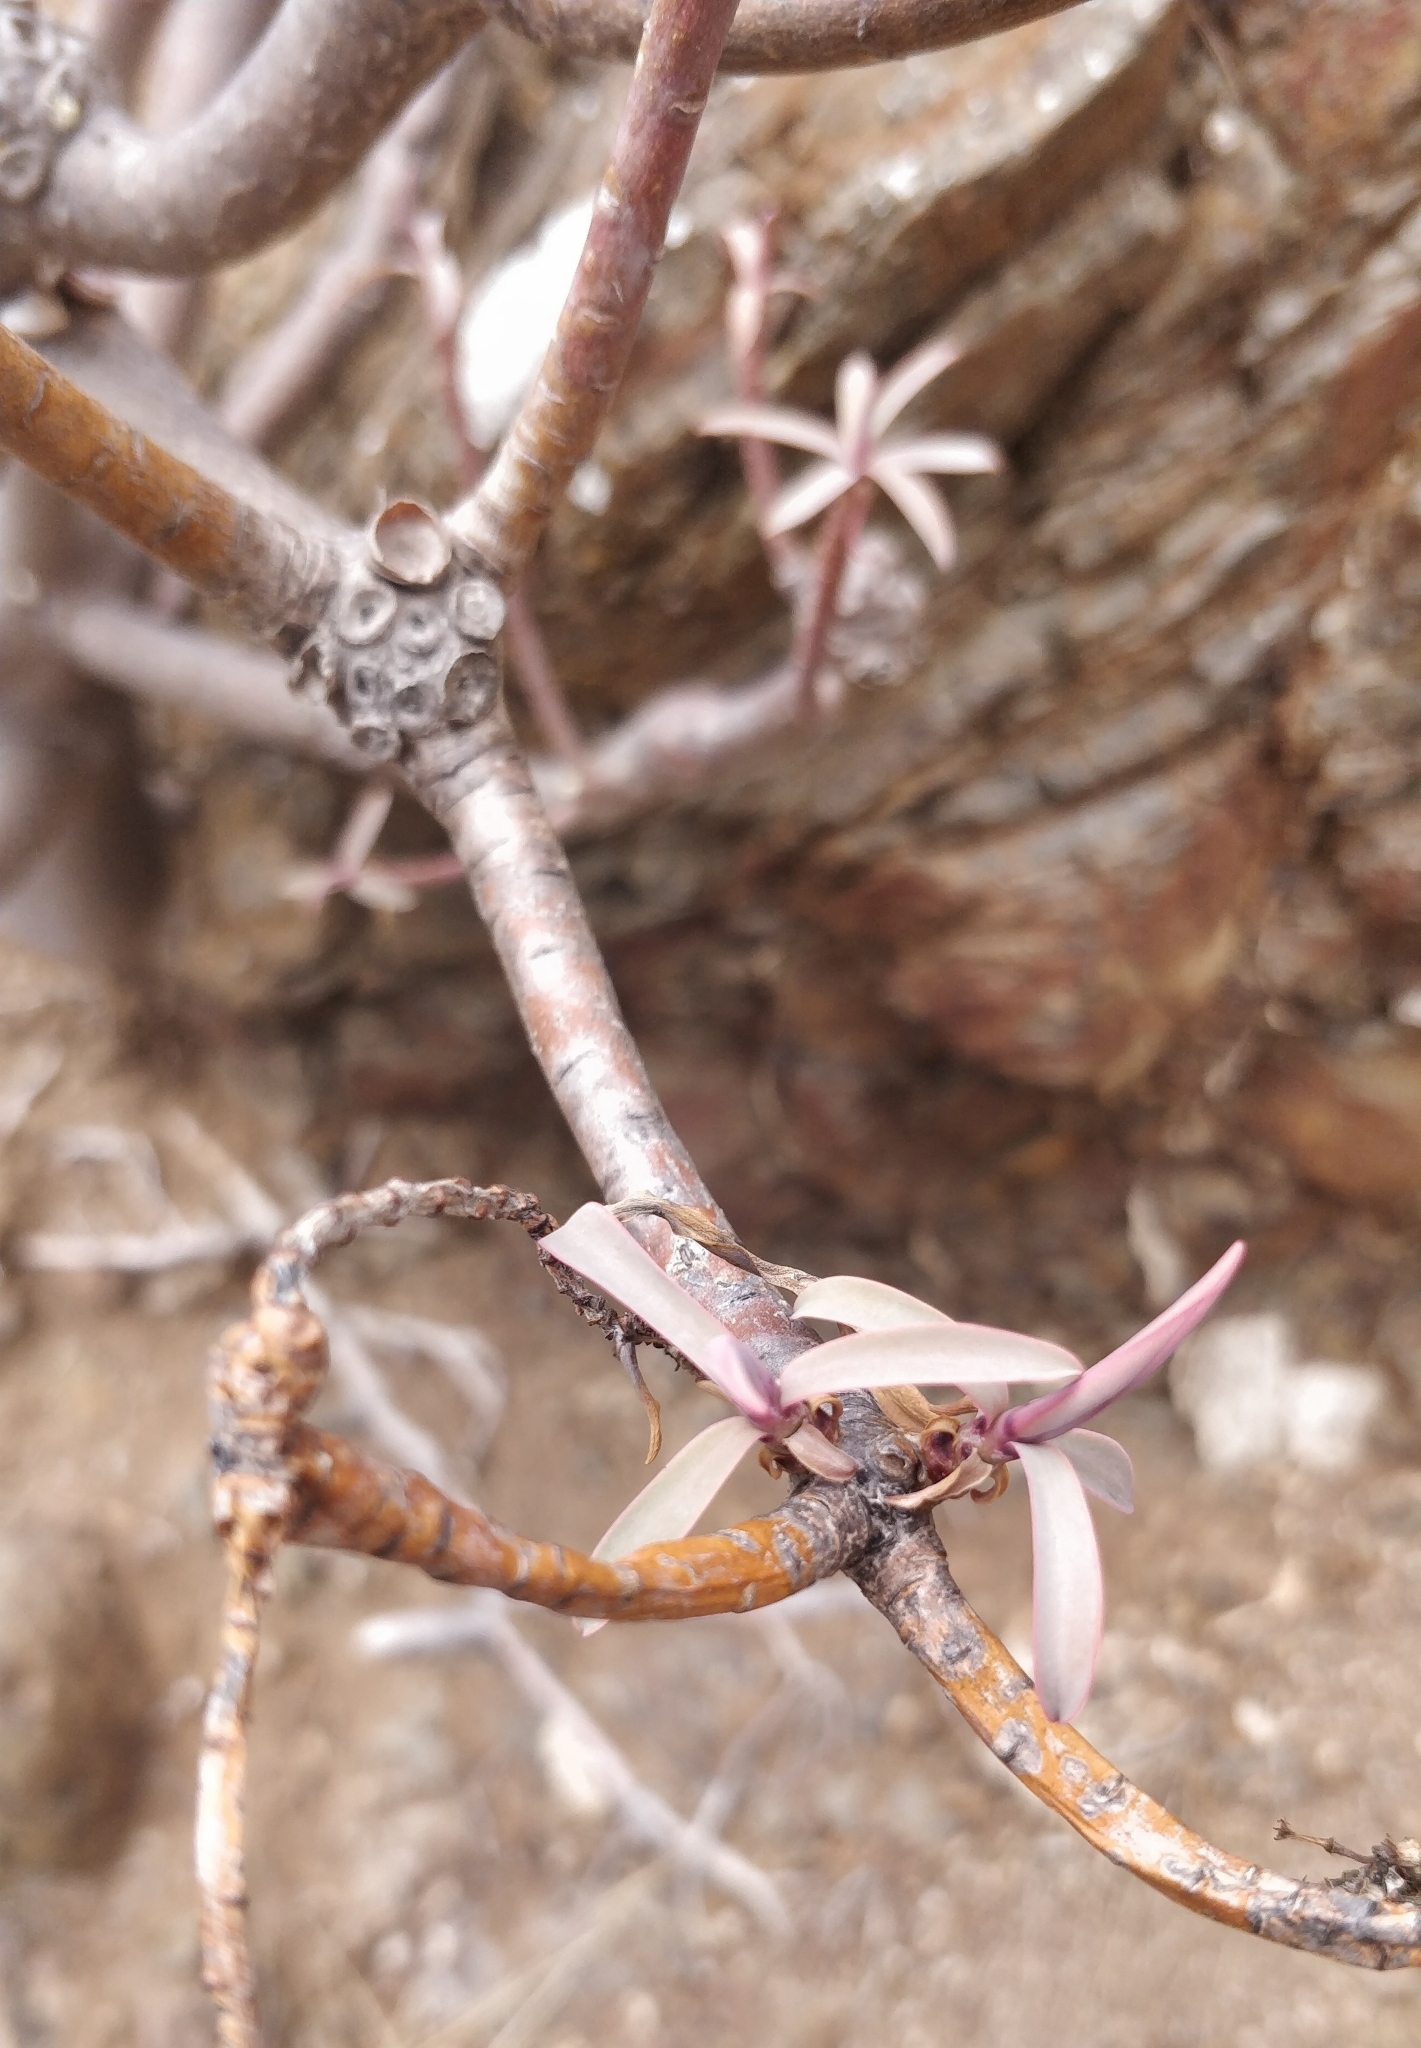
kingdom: Plantae
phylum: Tracheophyta
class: Magnoliopsida
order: Malpighiales
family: Euphorbiaceae
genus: Euphorbia
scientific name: Euphorbia piscatoria
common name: Fish-stunning spurge
